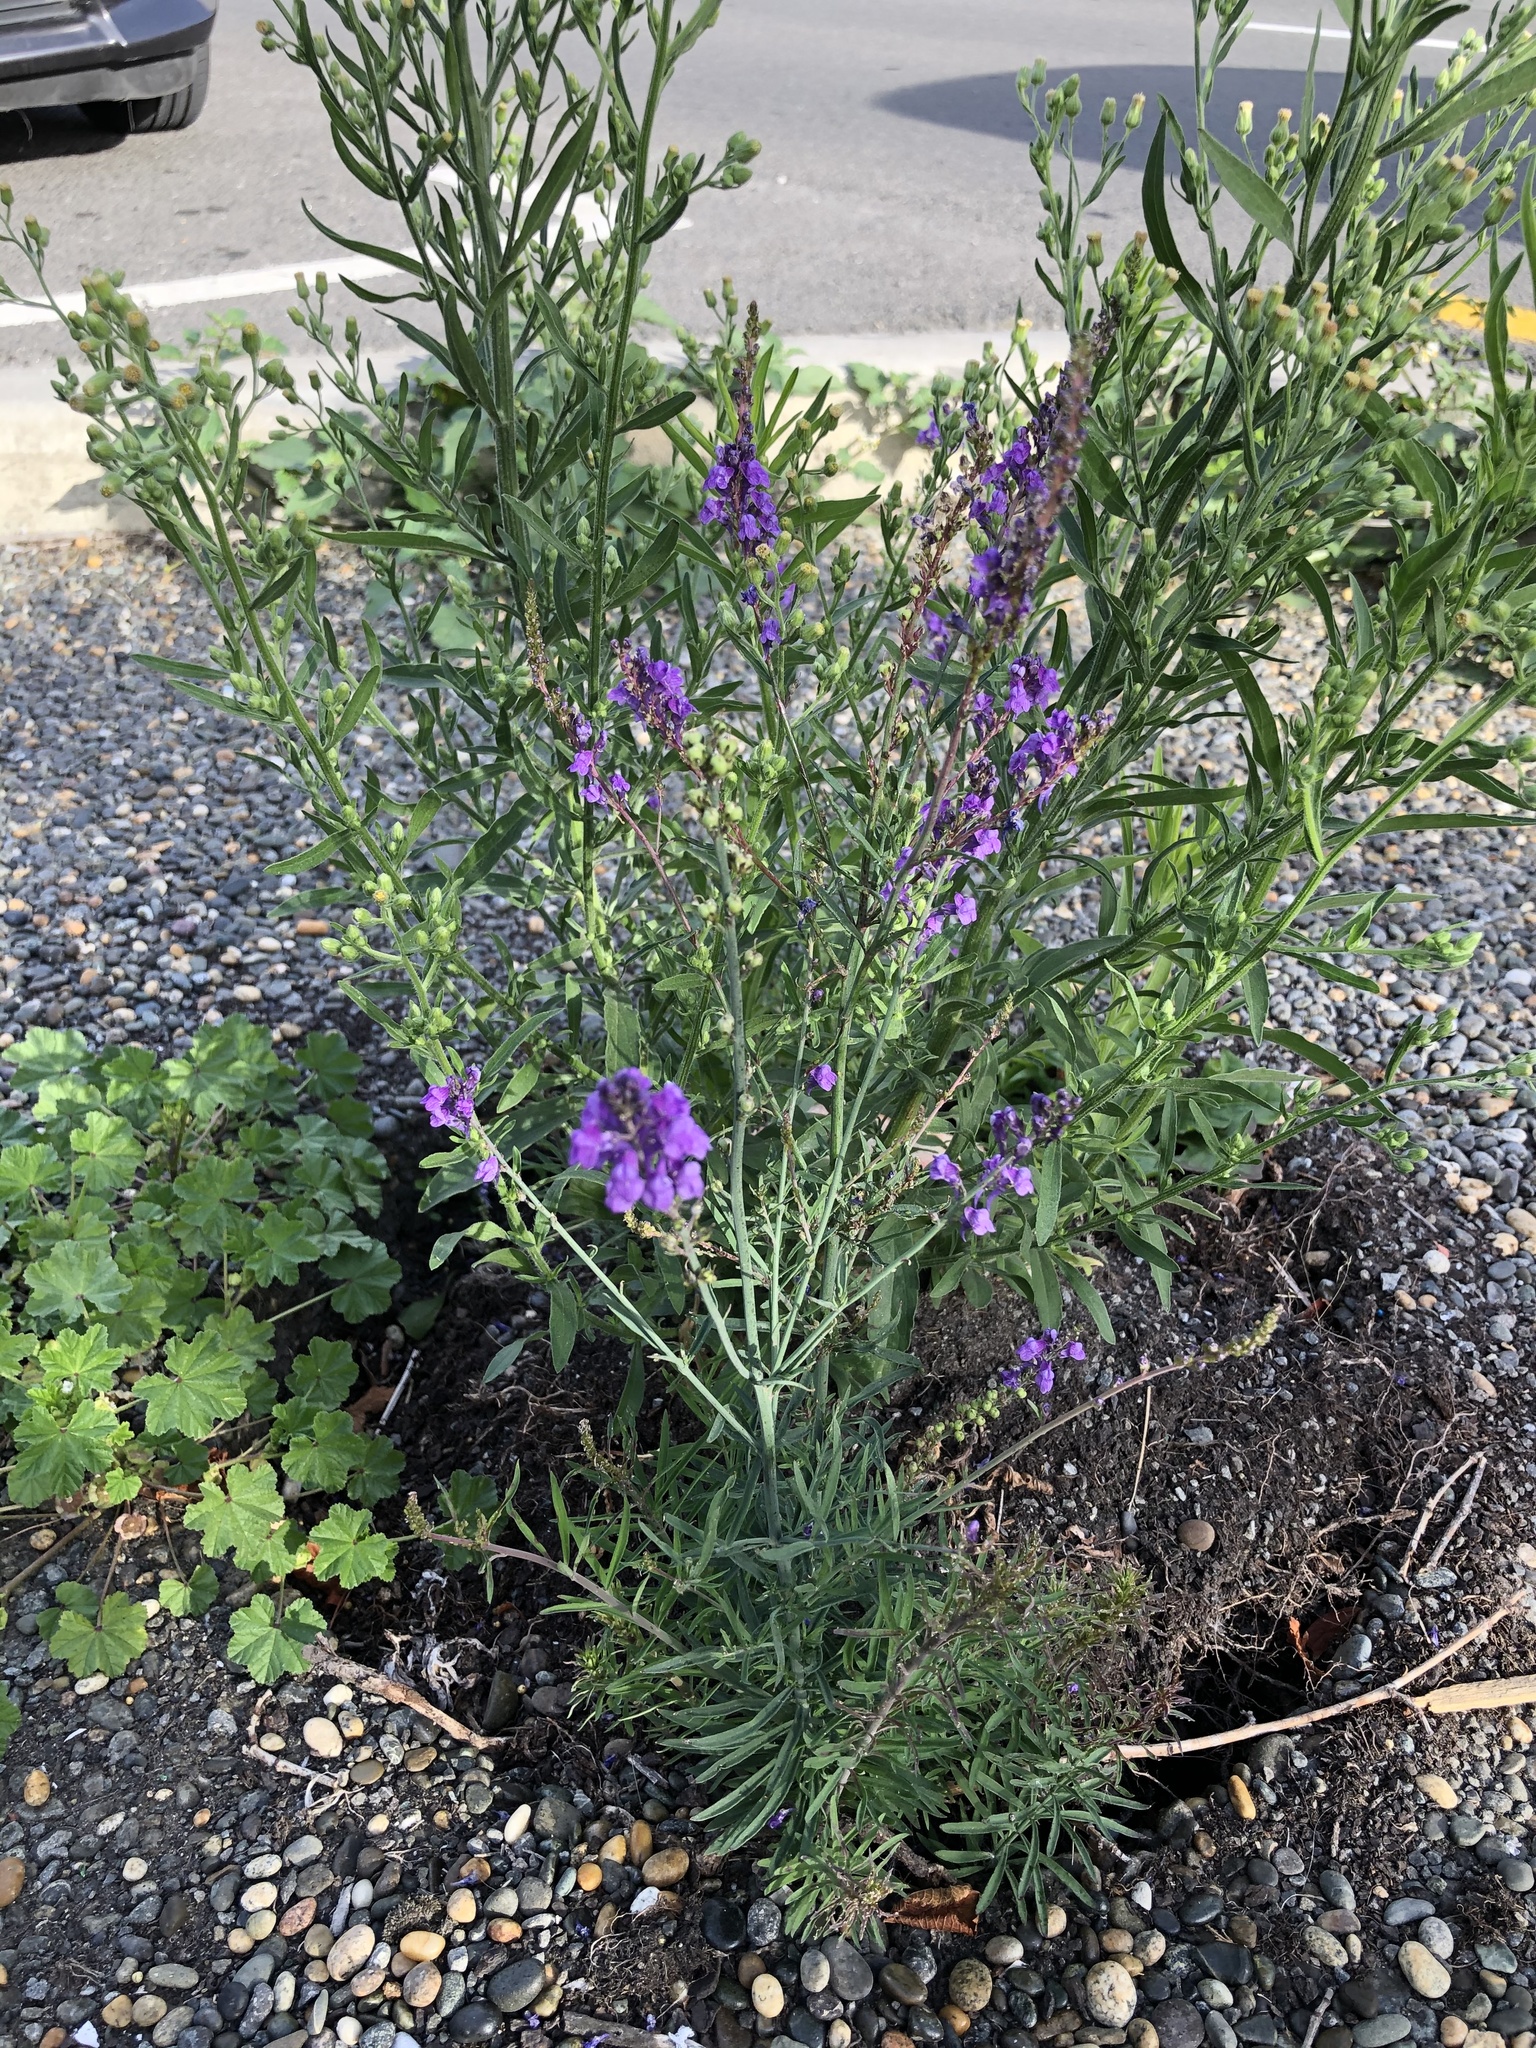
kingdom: Plantae
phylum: Tracheophyta
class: Magnoliopsida
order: Lamiales
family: Plantaginaceae
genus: Linaria
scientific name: Linaria purpurea
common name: Purple toadflax
